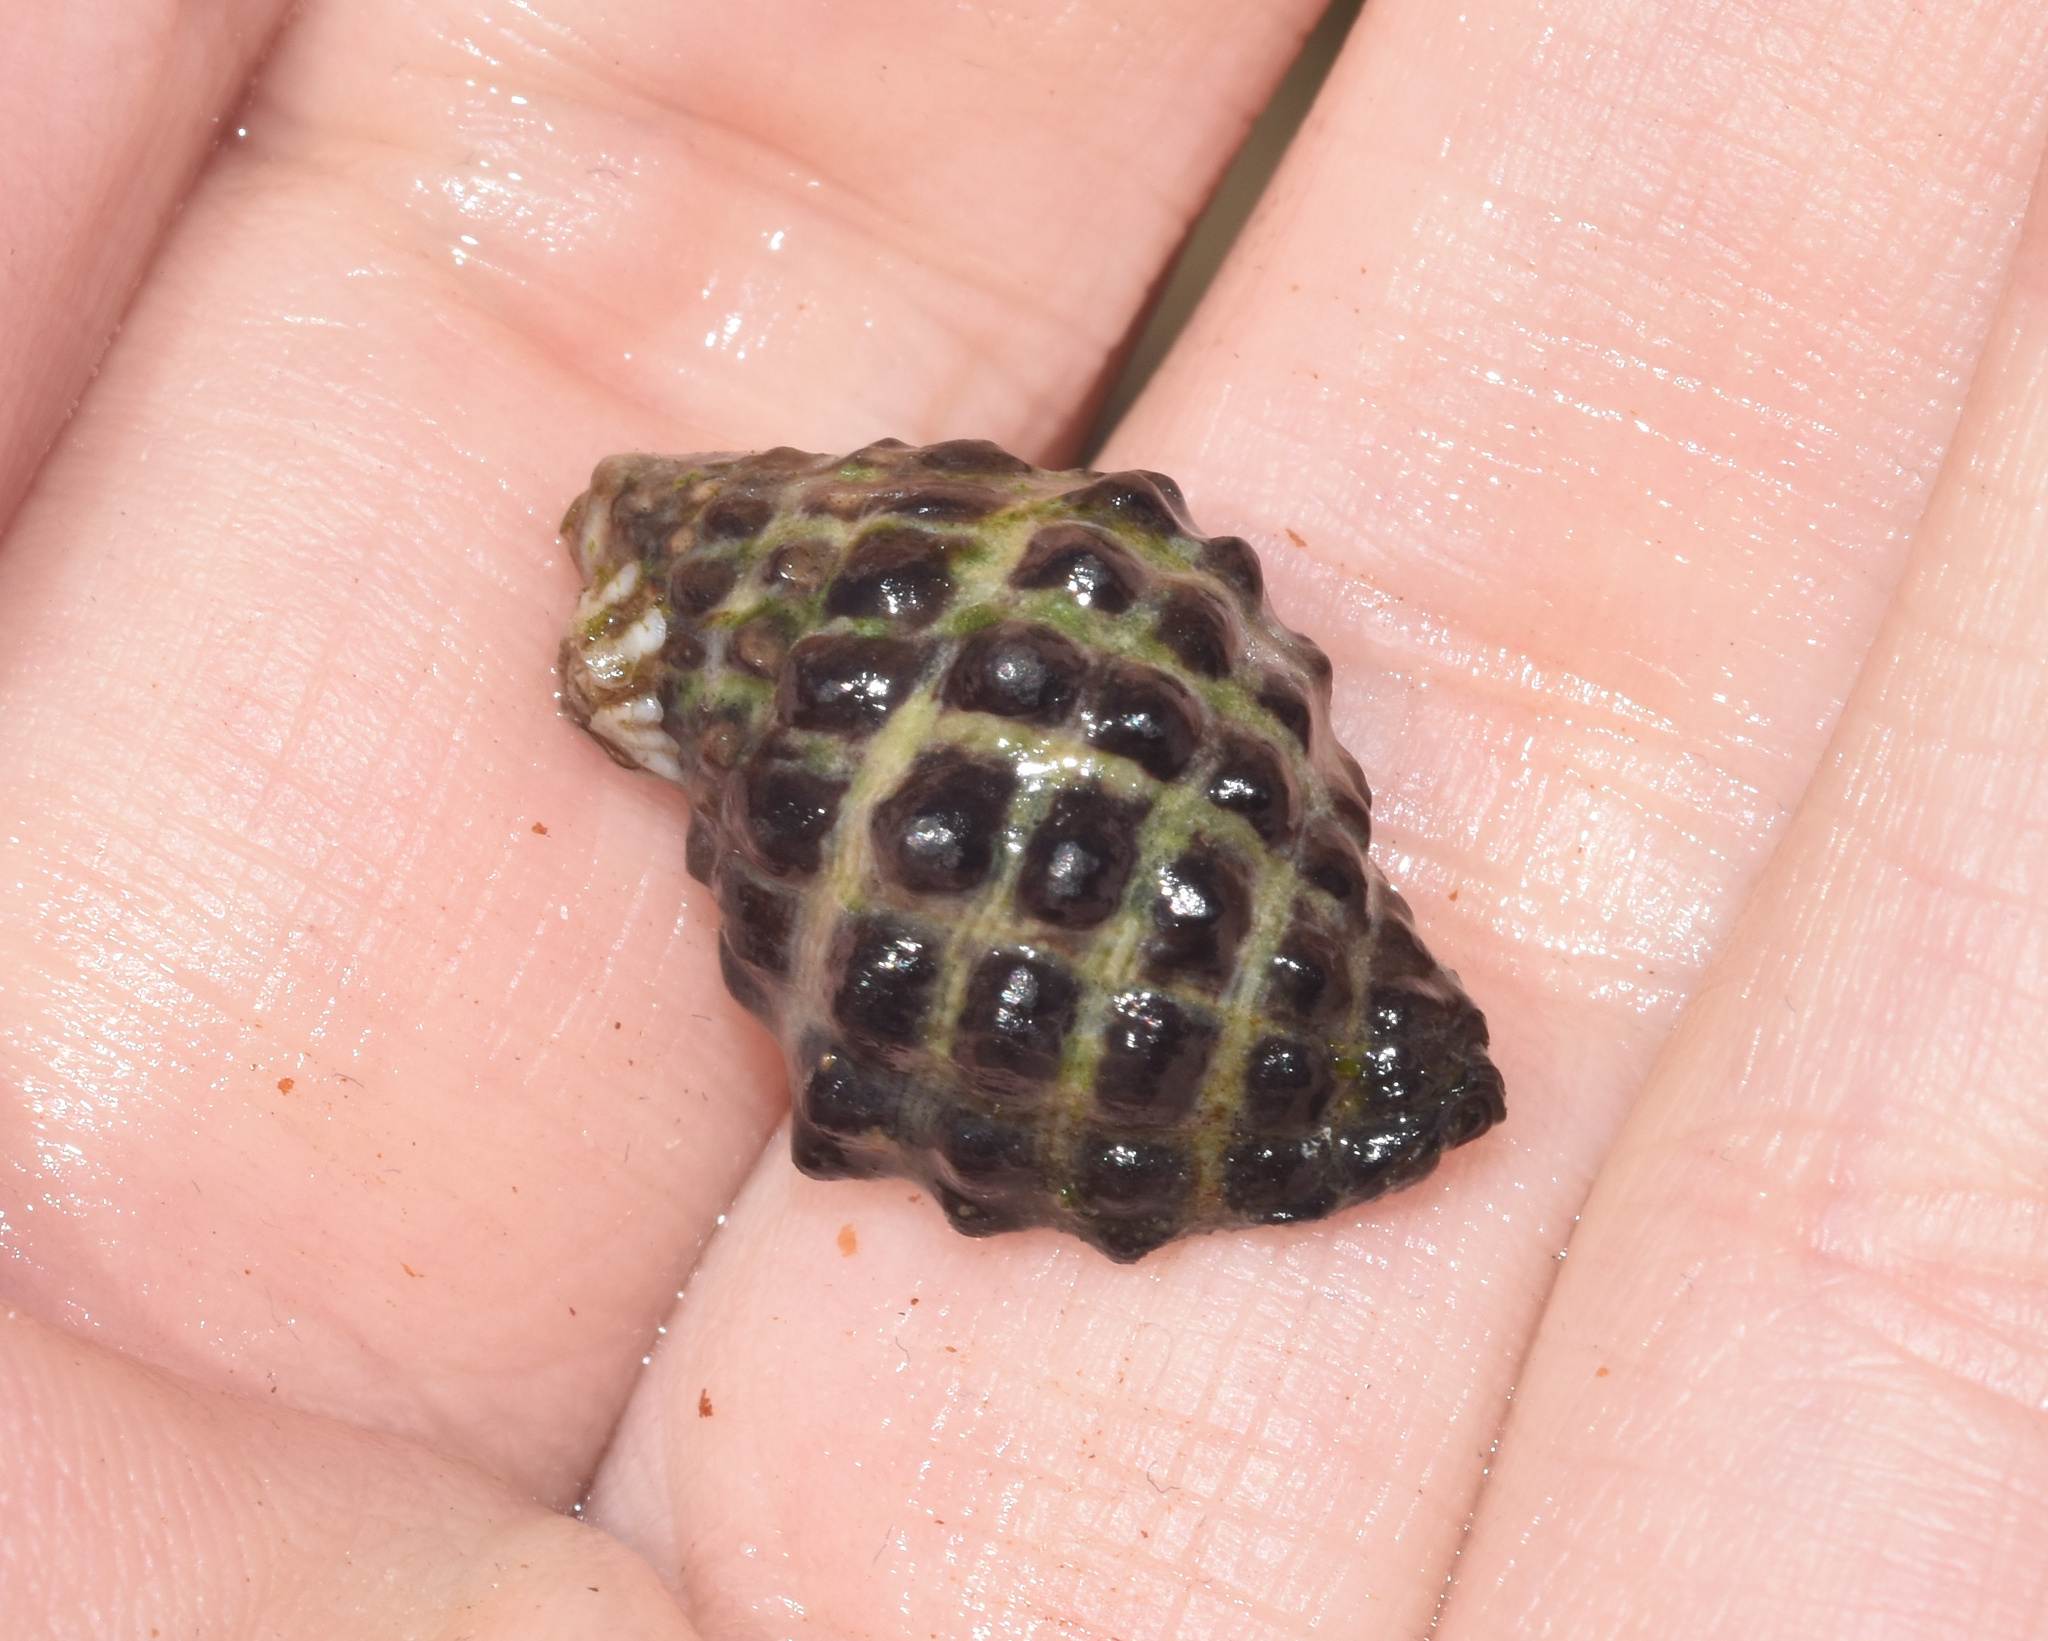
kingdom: Animalia
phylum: Mollusca
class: Gastropoda
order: Neogastropoda
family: Muricidae
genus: Tenguella
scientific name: Tenguella granulata
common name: Granular drupe
